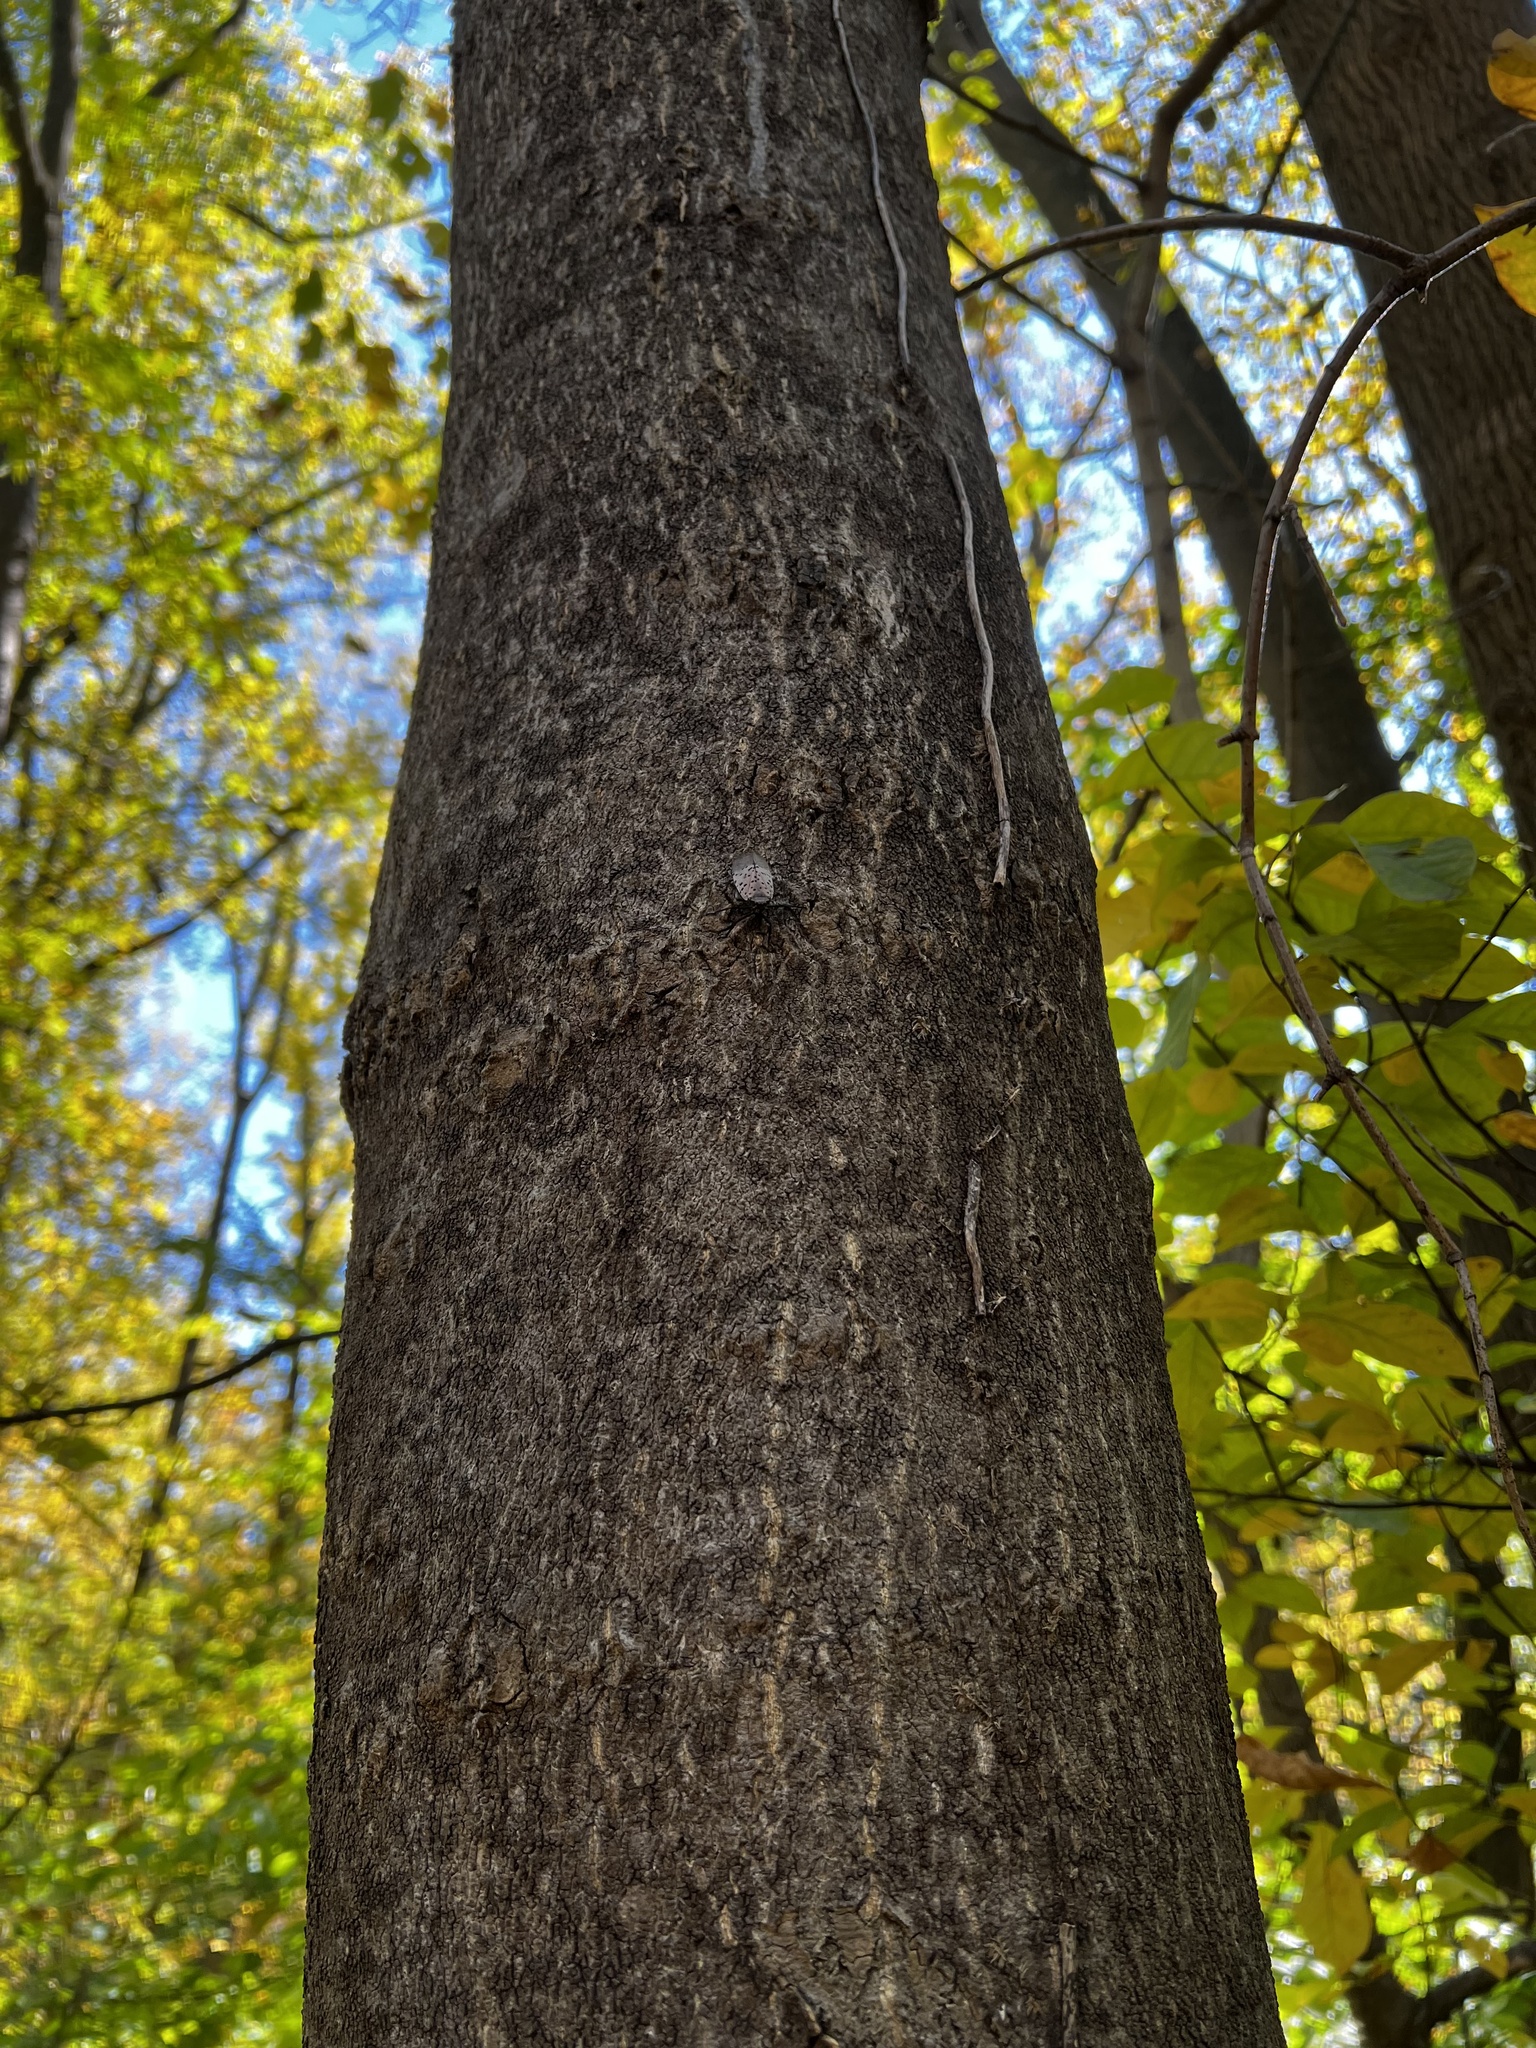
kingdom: Animalia
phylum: Arthropoda
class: Insecta
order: Hemiptera
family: Fulgoridae
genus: Lycorma
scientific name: Lycorma delicatula
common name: Spotted lanternfly
